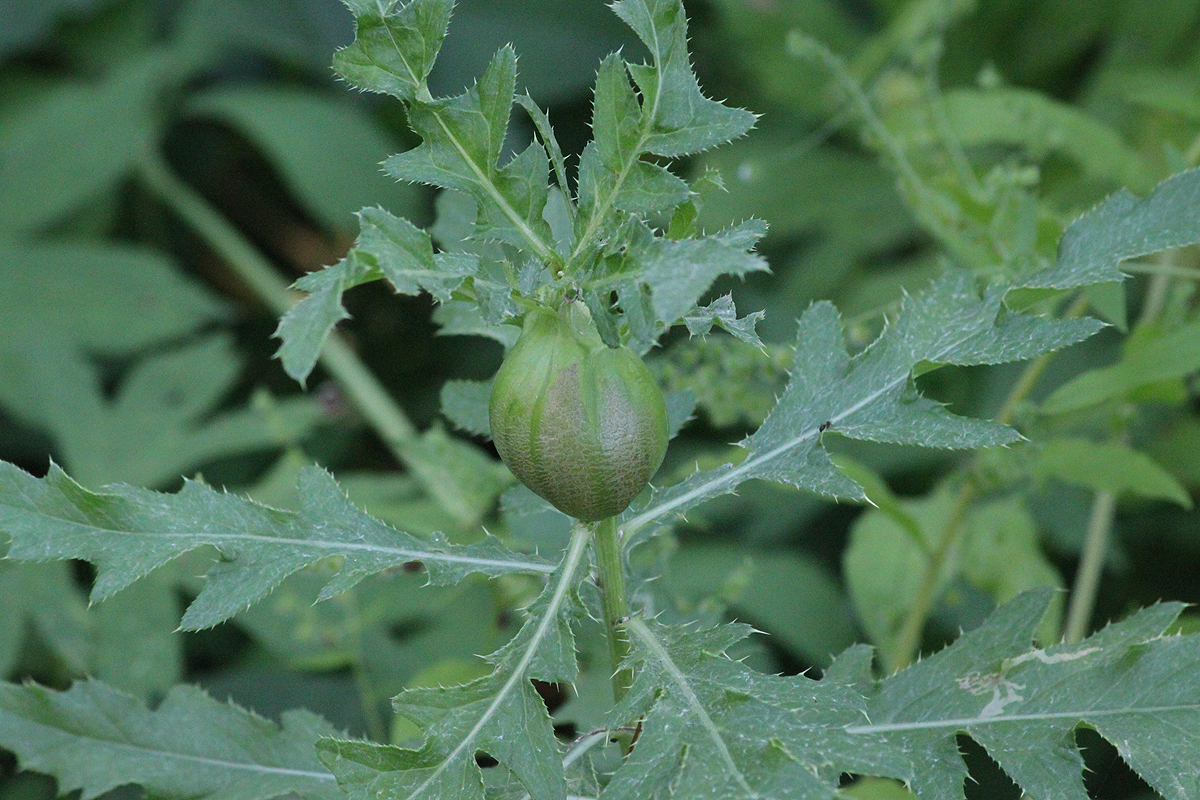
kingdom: Animalia
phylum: Arthropoda
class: Insecta
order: Diptera
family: Tephritidae
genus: Urophora
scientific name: Urophora cardui
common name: Fruit fly
